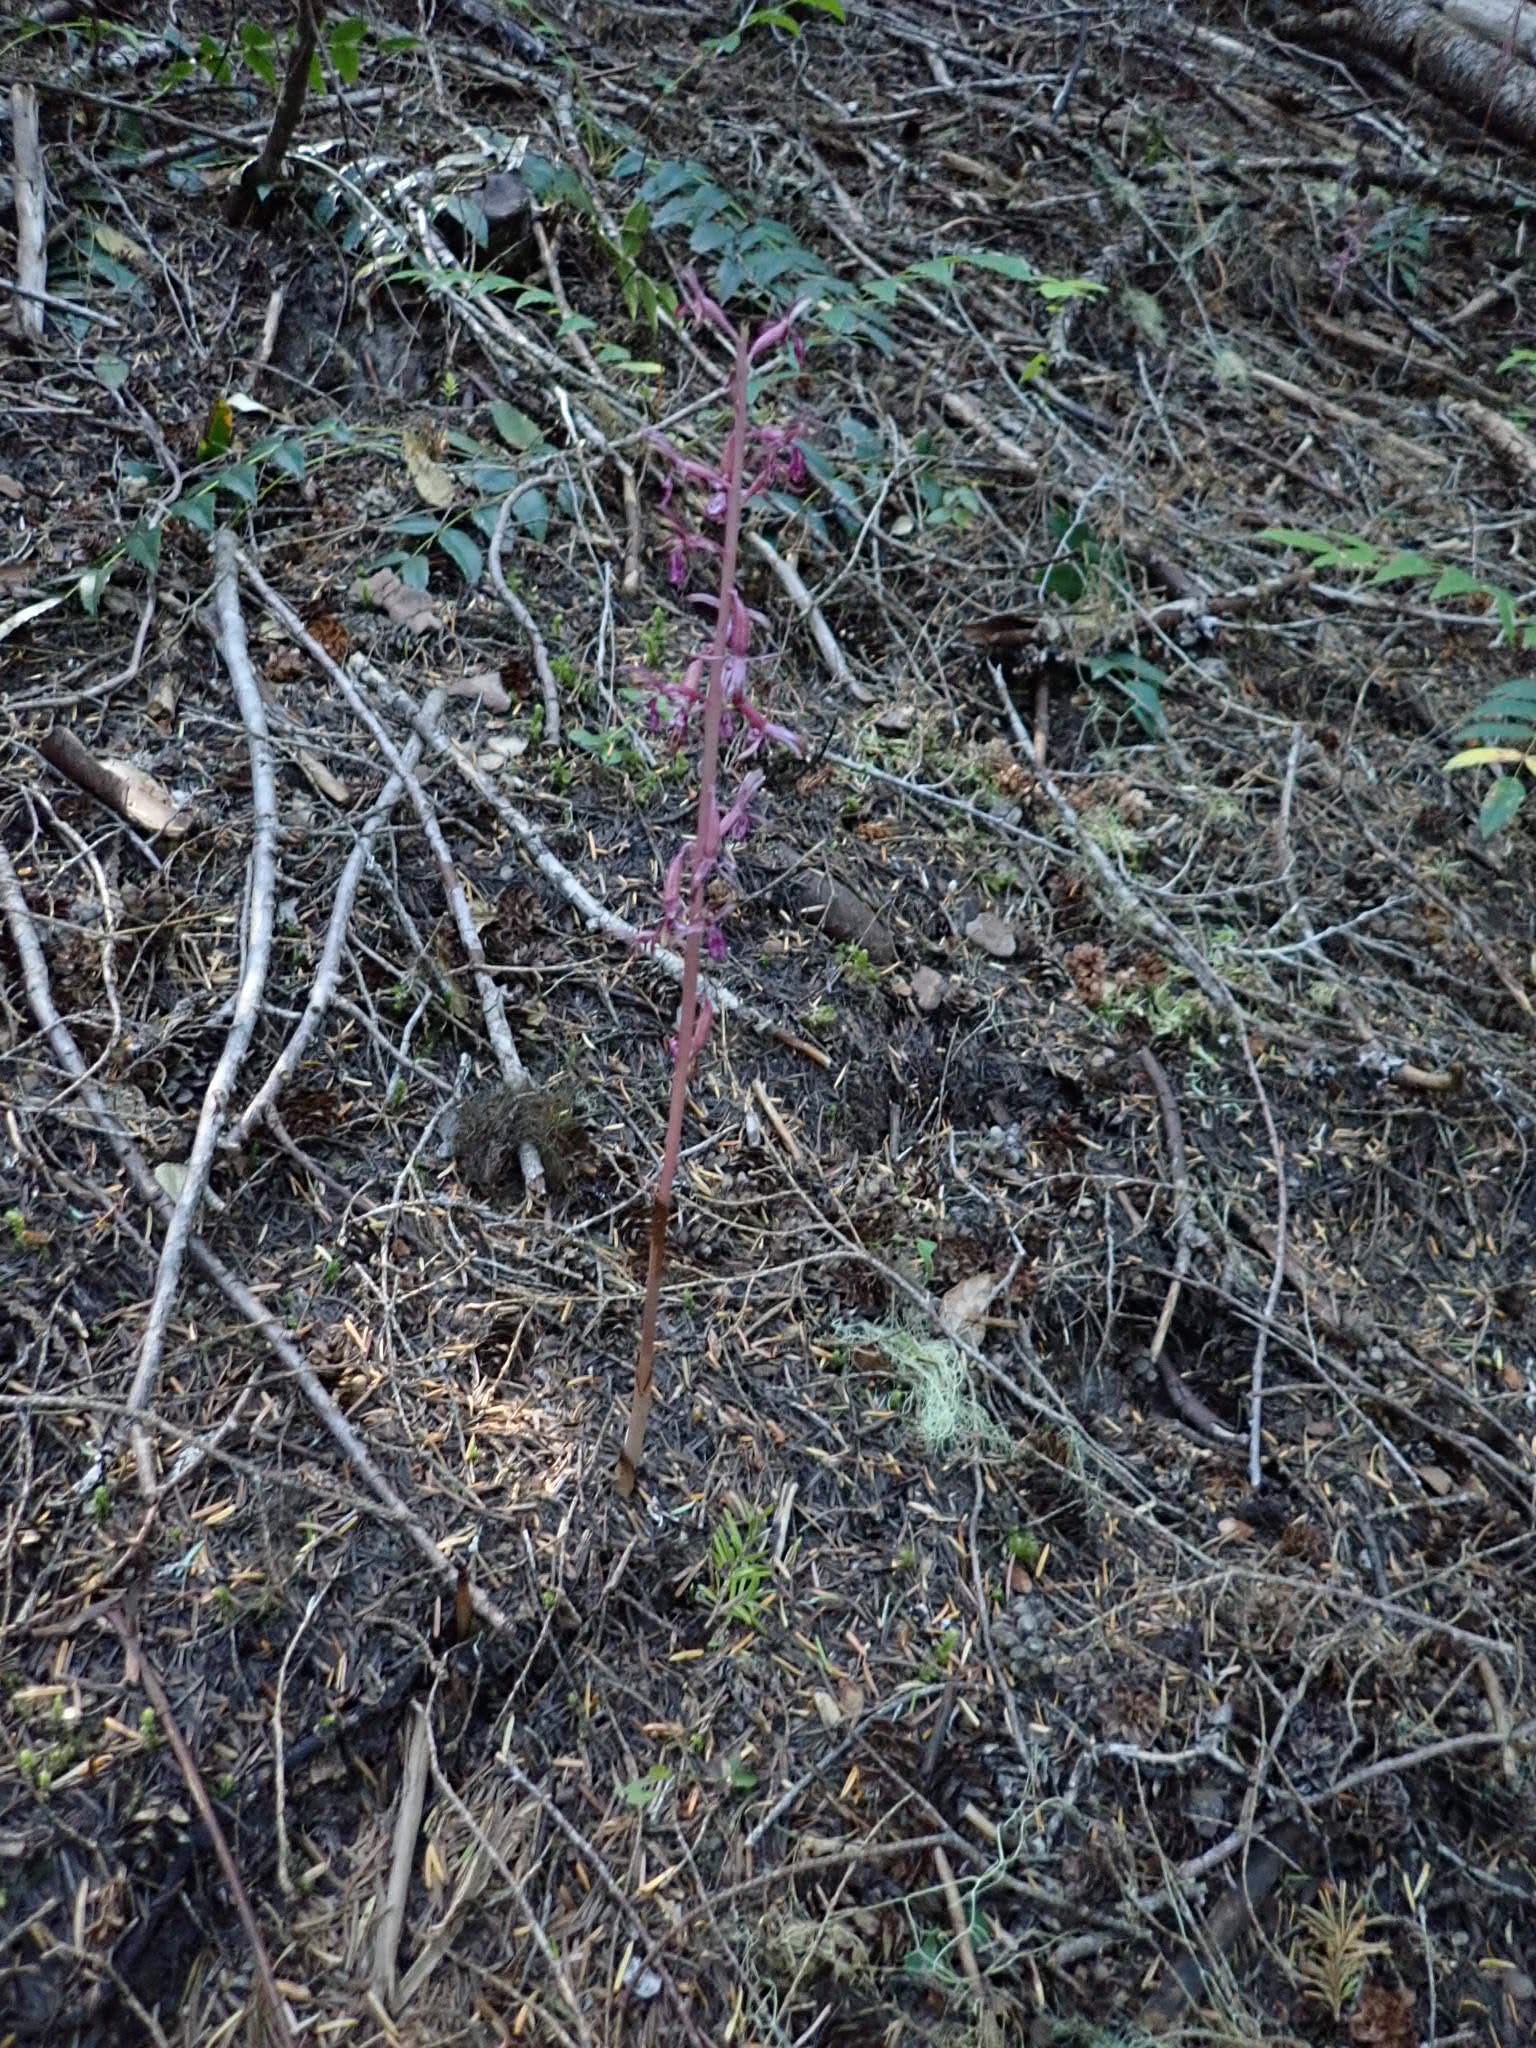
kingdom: Plantae
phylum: Tracheophyta
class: Liliopsida
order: Asparagales
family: Orchidaceae
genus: Corallorhiza
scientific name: Corallorhiza mertensiana
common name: Pacific coralroot
